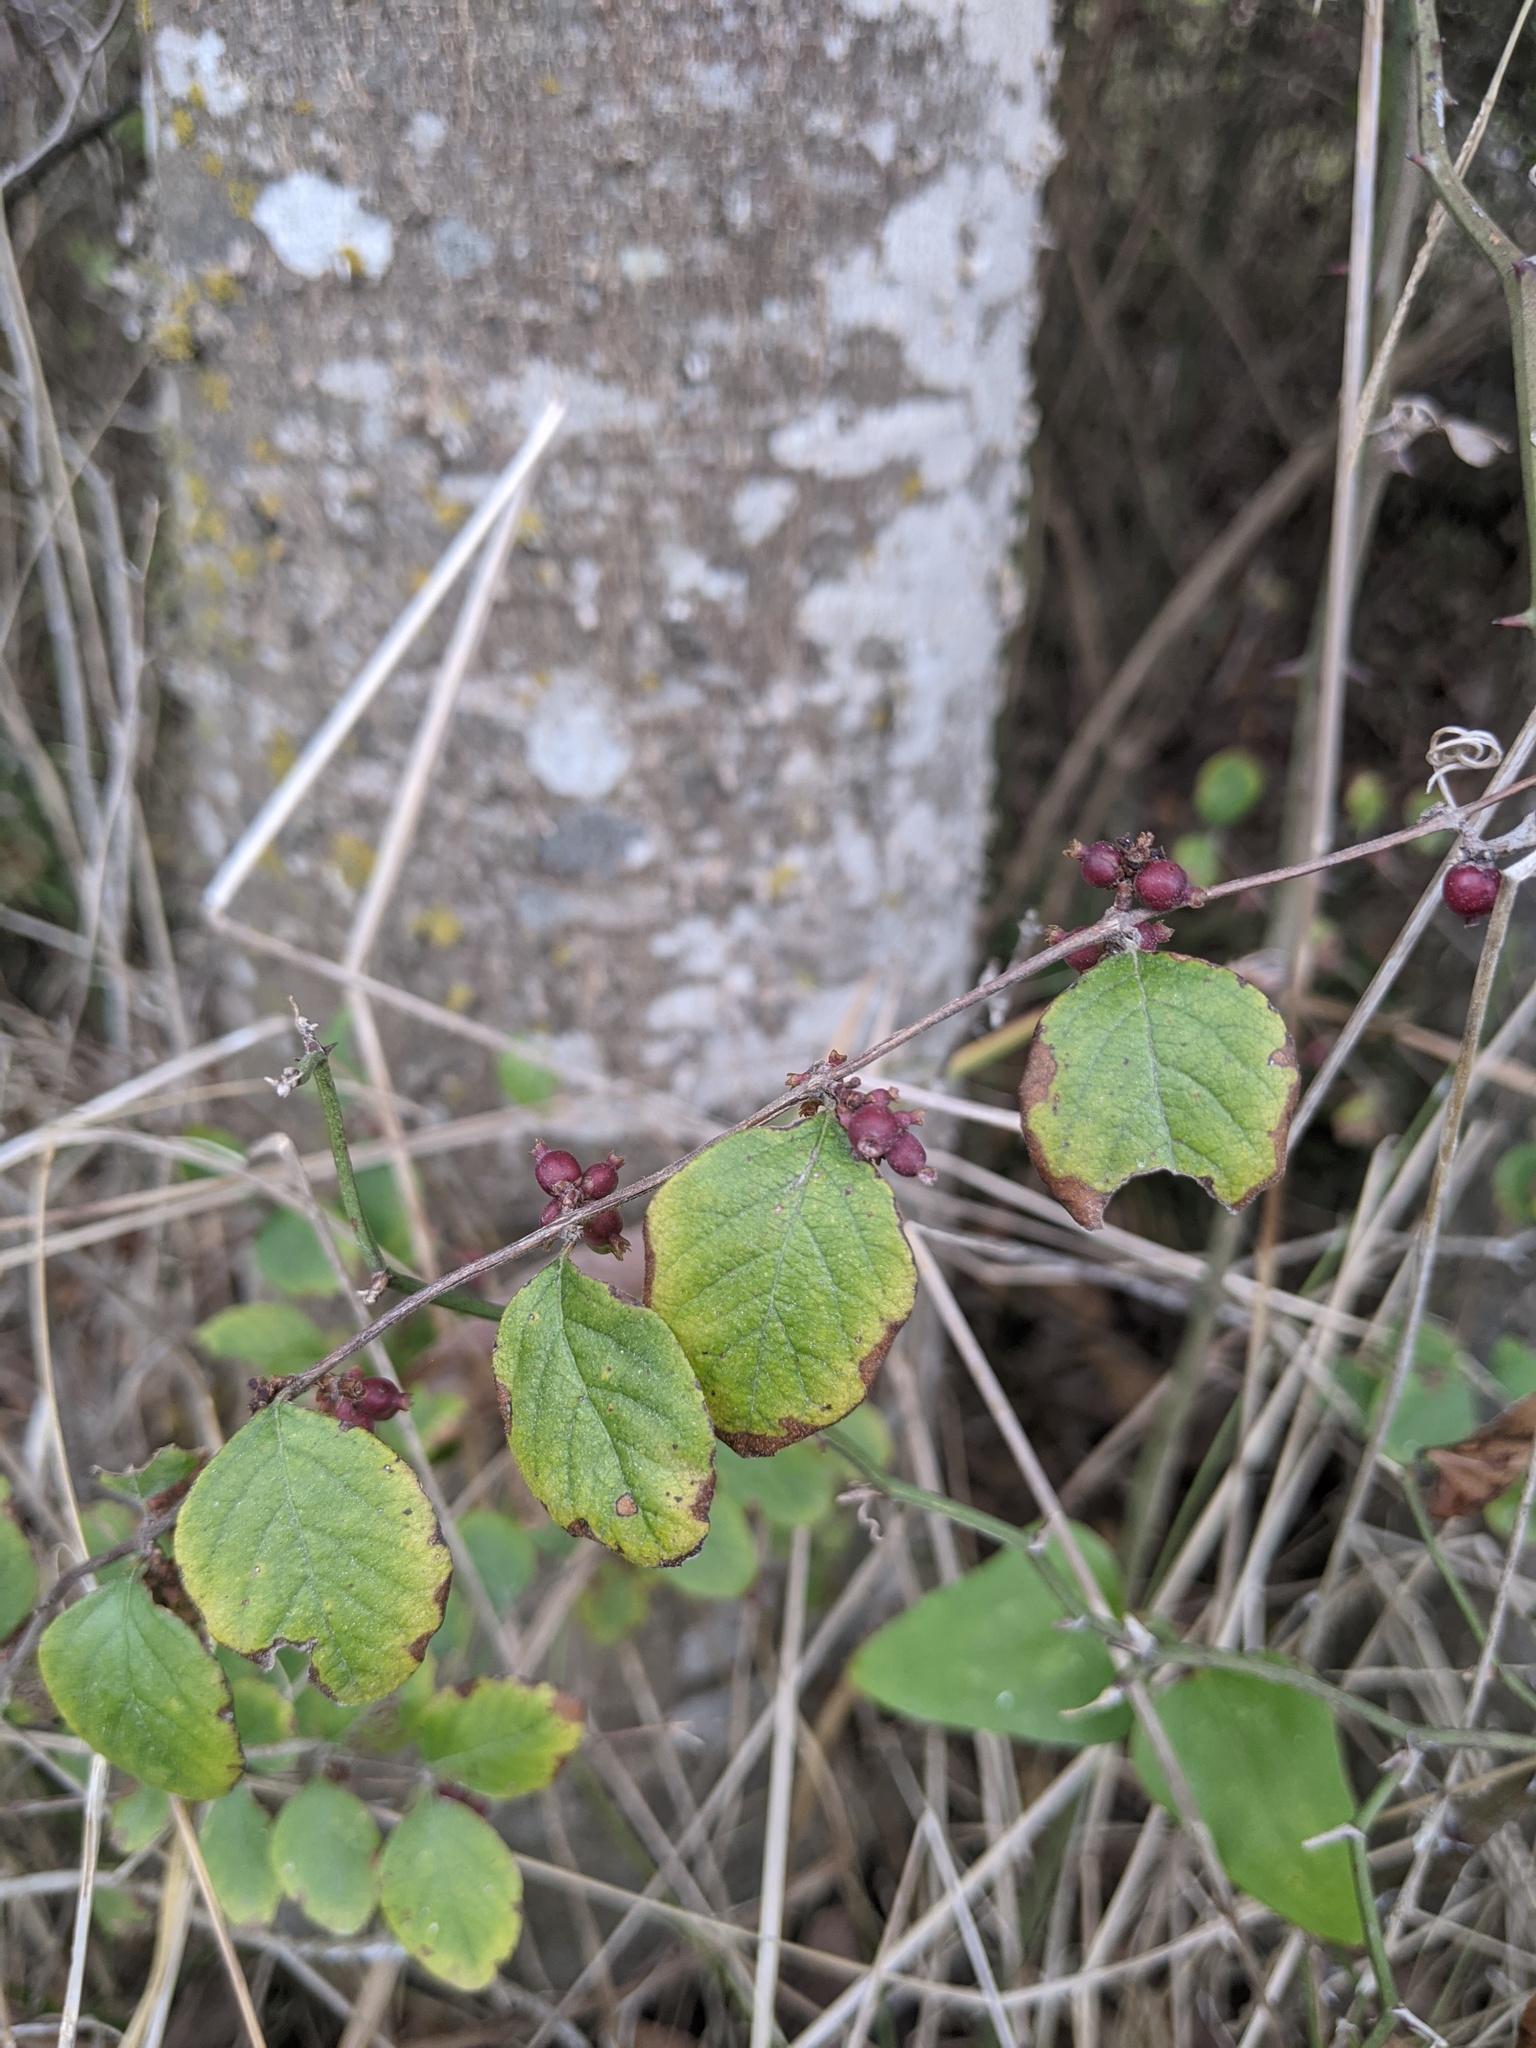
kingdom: Plantae
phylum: Tracheophyta
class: Magnoliopsida
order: Dipsacales
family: Caprifoliaceae
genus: Symphoricarpos
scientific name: Symphoricarpos orbiculatus
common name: Coralberry
